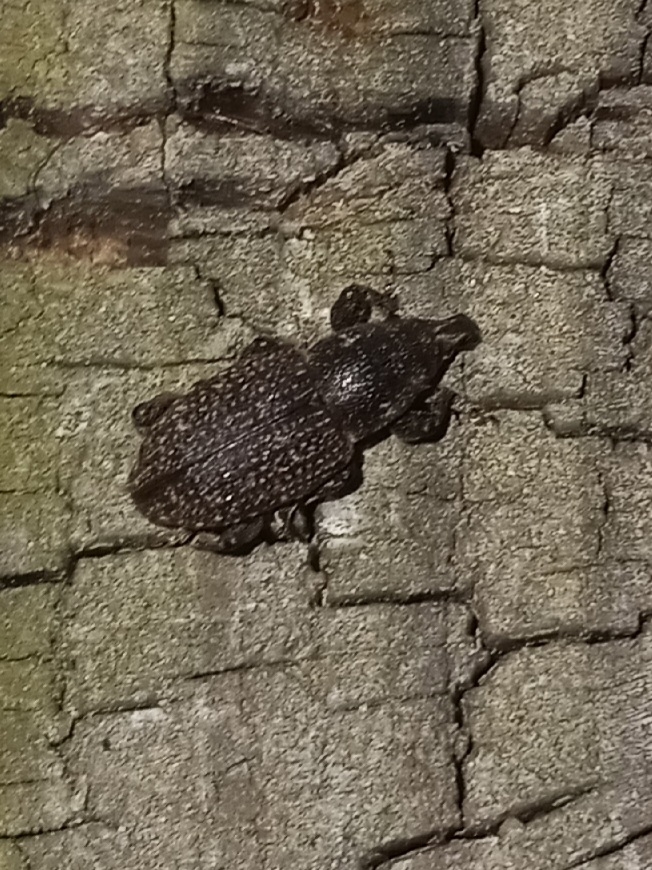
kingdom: Animalia
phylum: Arthropoda
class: Insecta
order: Coleoptera
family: Curculionidae
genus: Pachylobius
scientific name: Pachylobius picivorus
